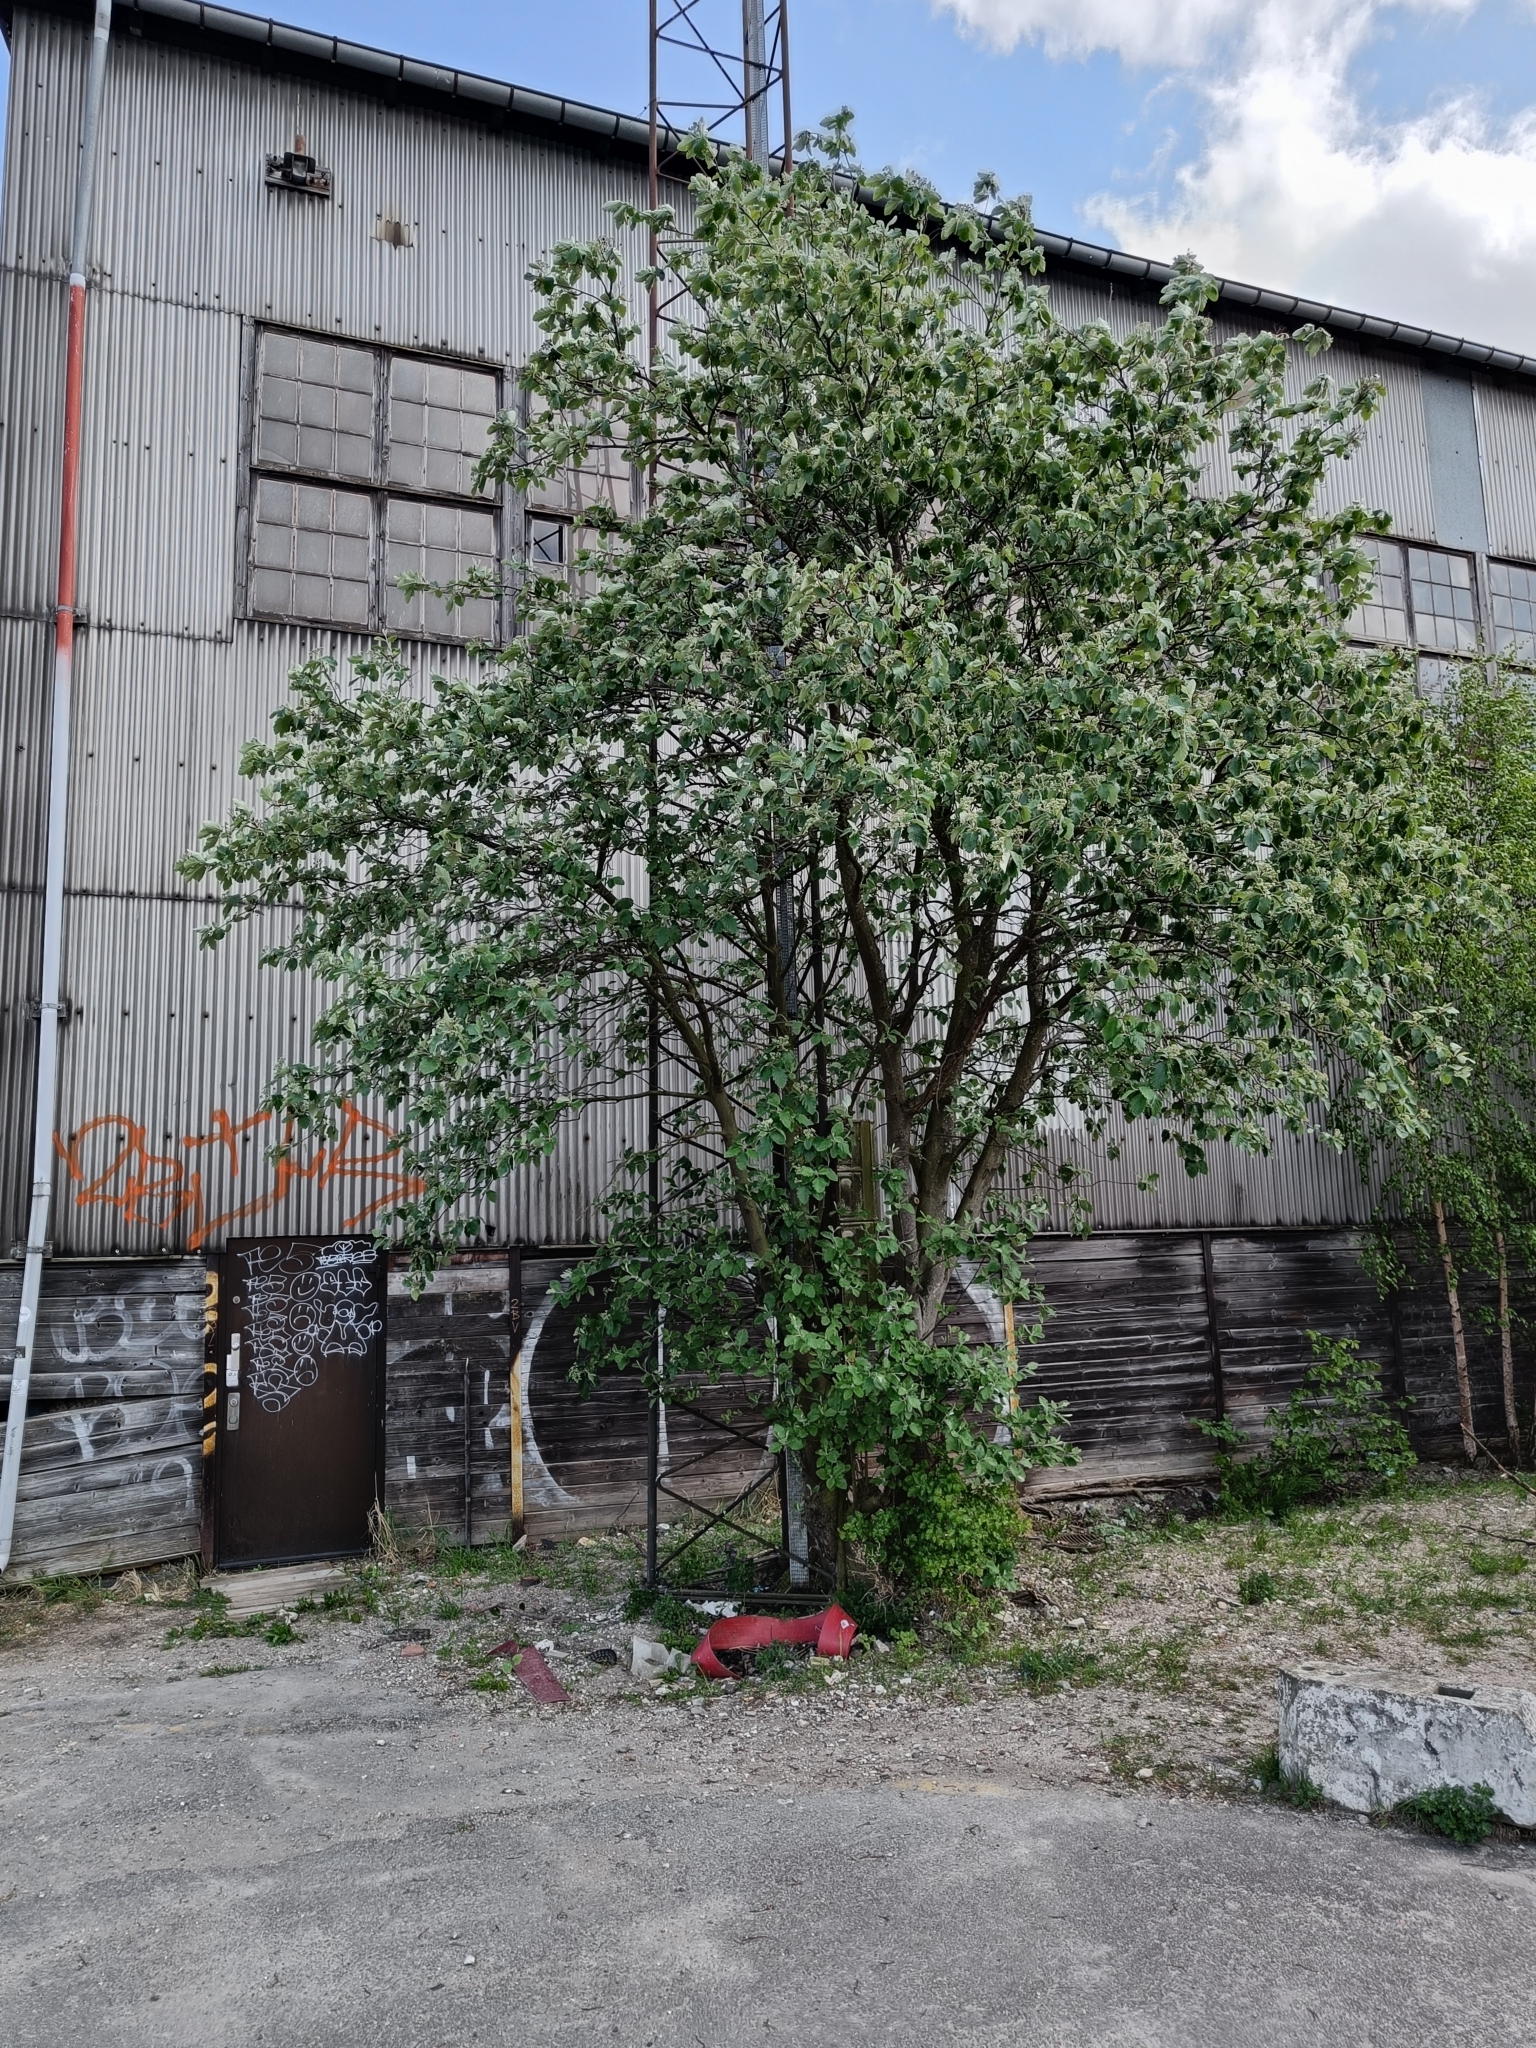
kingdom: Plantae
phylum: Tracheophyta
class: Magnoliopsida
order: Rosales
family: Rosaceae
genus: Scandosorbus
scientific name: Scandosorbus intermedia
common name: Swedish whitebeam
